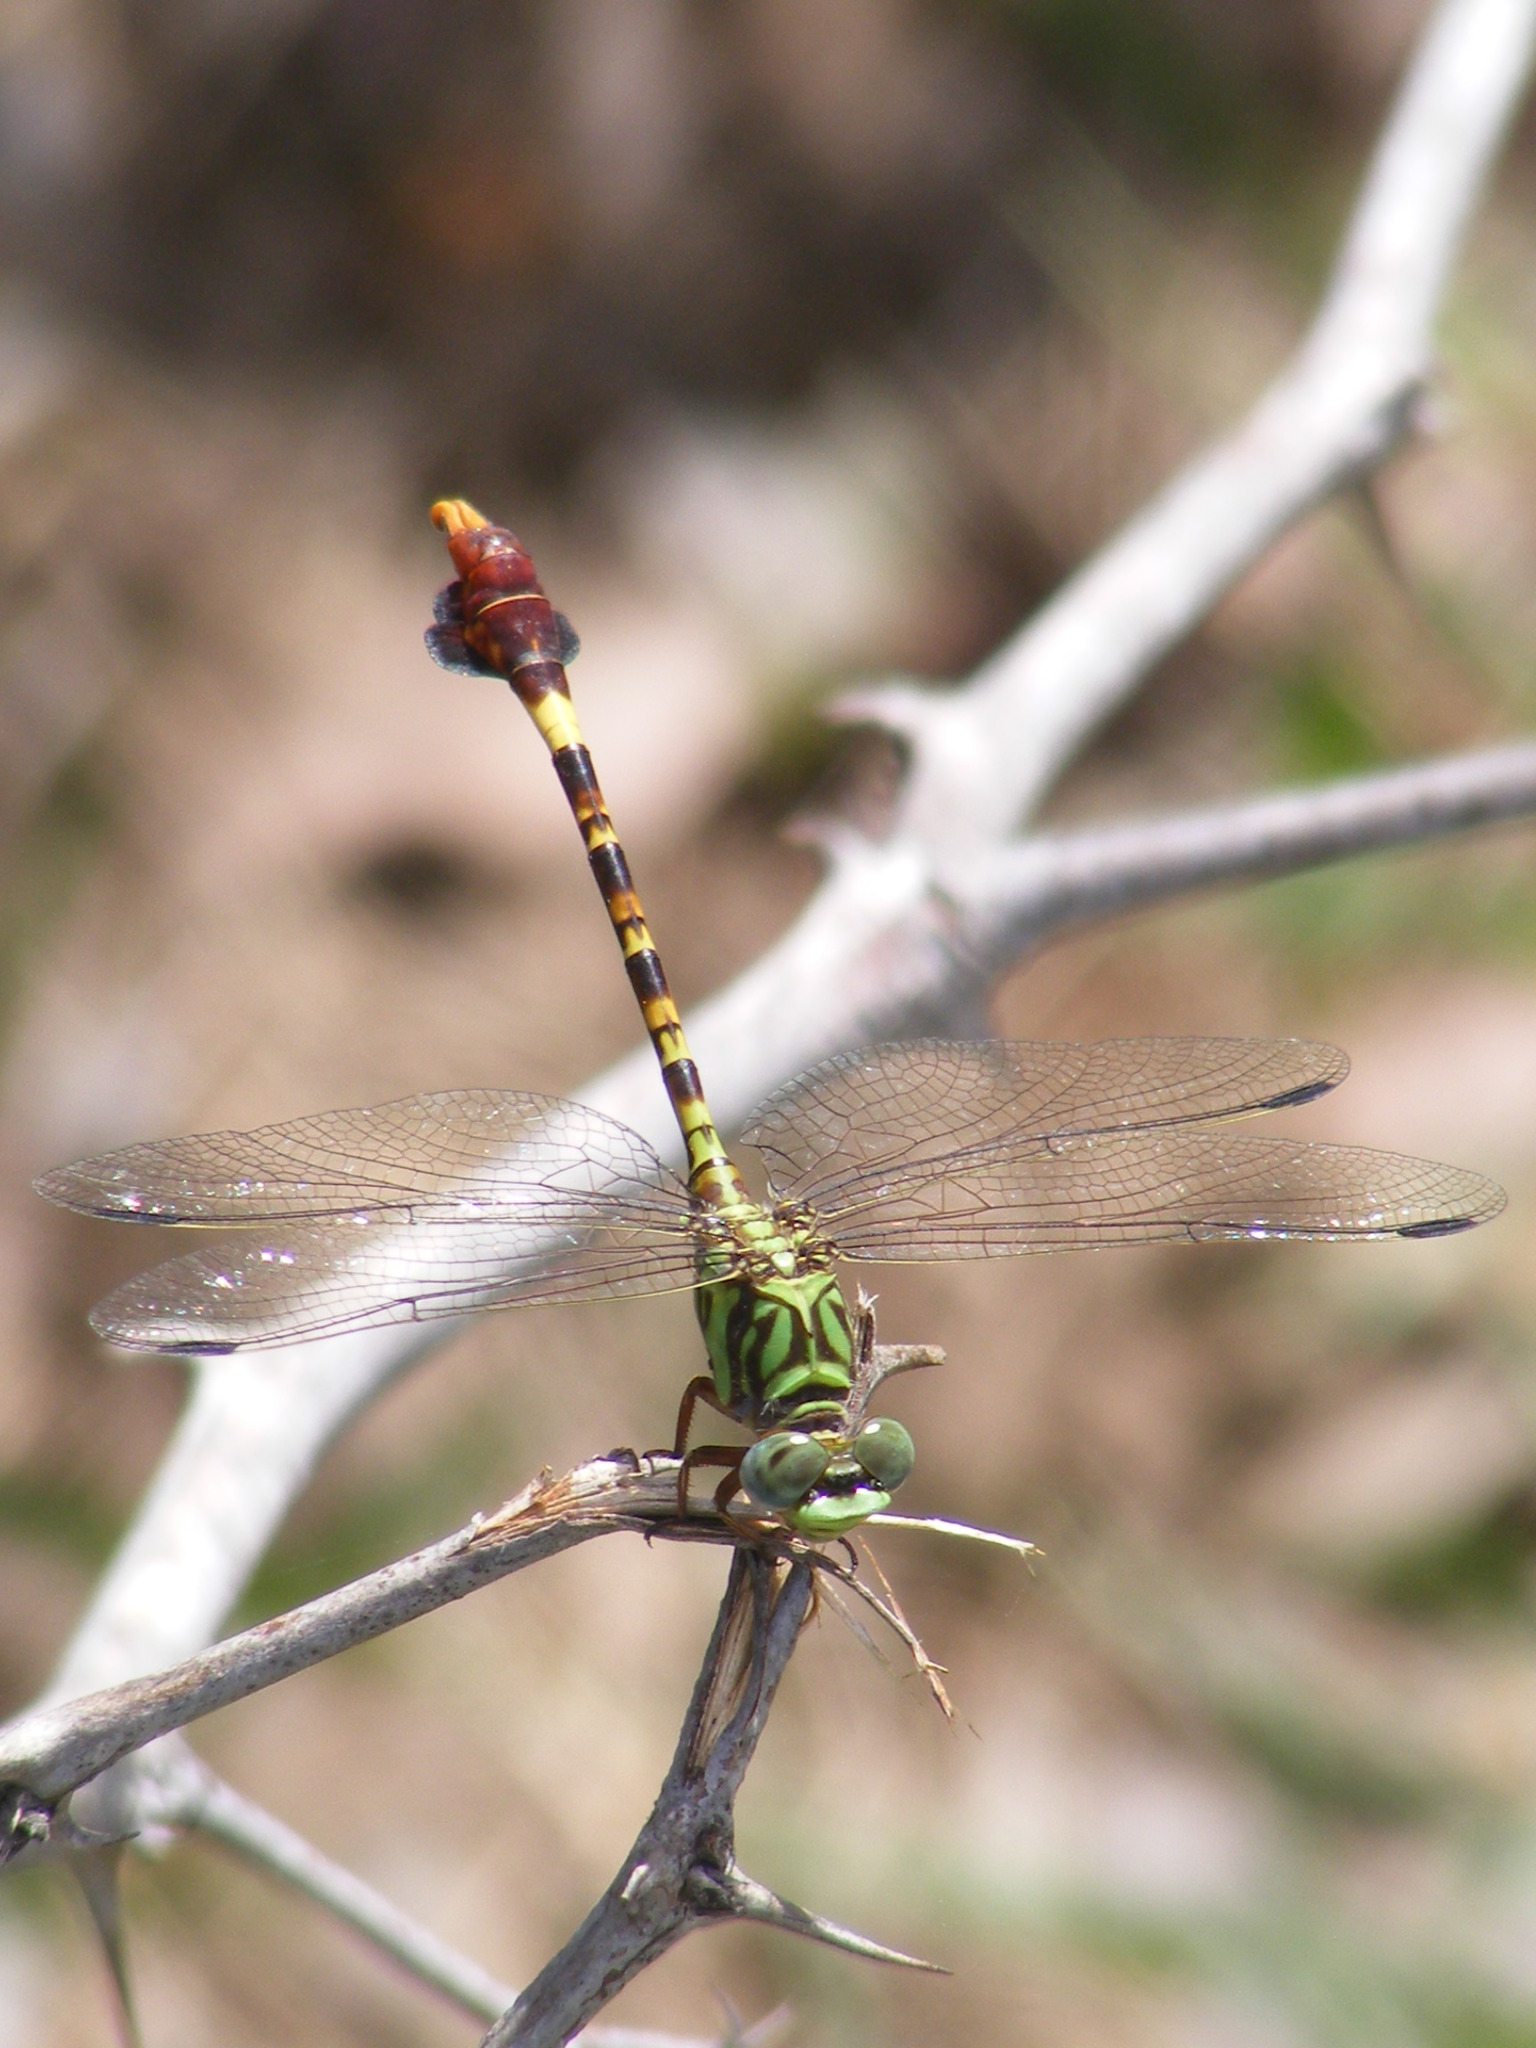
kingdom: Animalia
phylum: Arthropoda
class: Insecta
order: Odonata
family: Gomphidae
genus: Paragomphus
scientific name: Paragomphus elpidius
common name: Corkscrew hooktail
